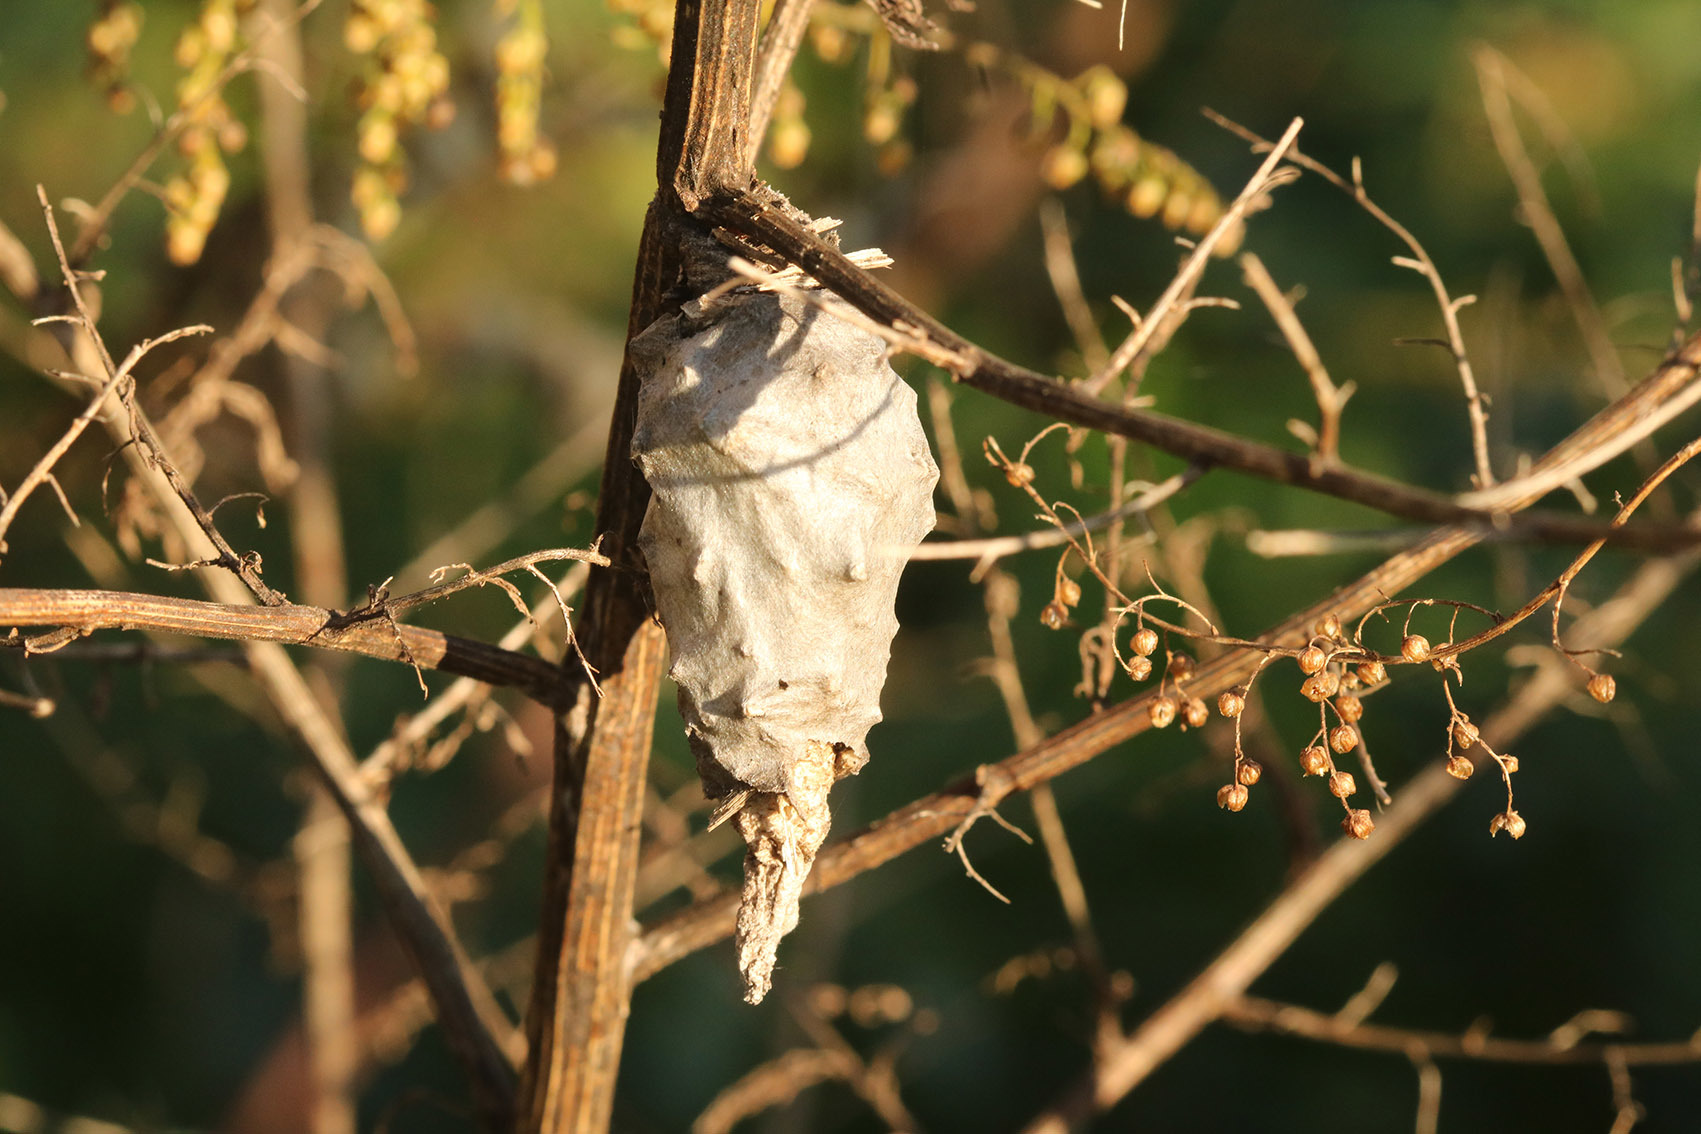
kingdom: Animalia
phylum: Arthropoda
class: Insecta
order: Lepidoptera
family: Psychidae
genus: Oiketicus
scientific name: Oiketicus
